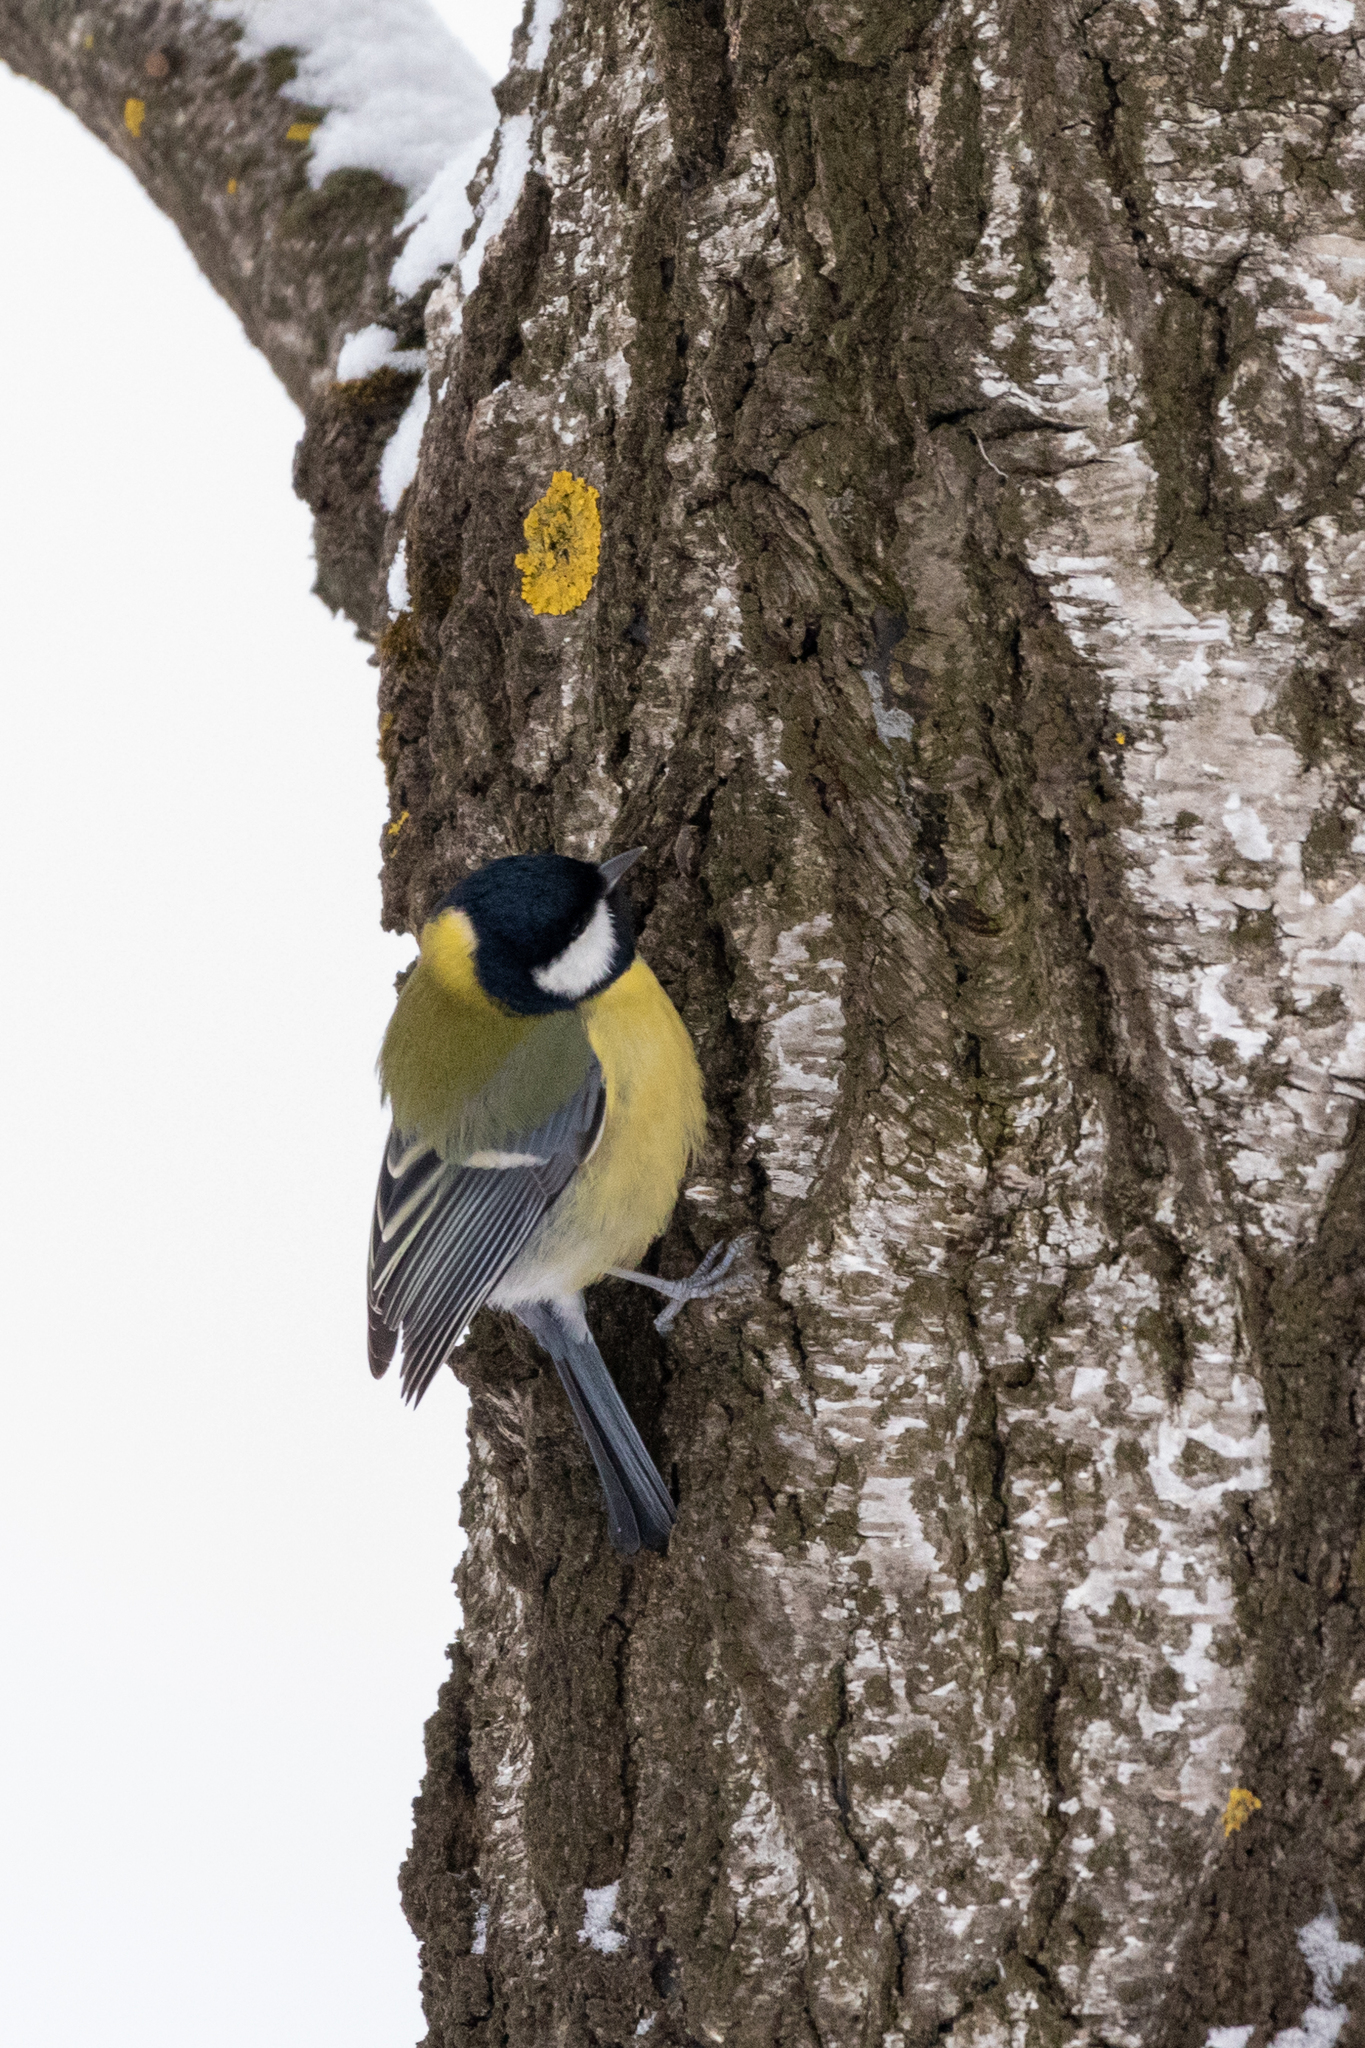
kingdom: Animalia
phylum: Chordata
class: Aves
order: Passeriformes
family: Paridae
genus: Parus
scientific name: Parus major
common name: Great tit
